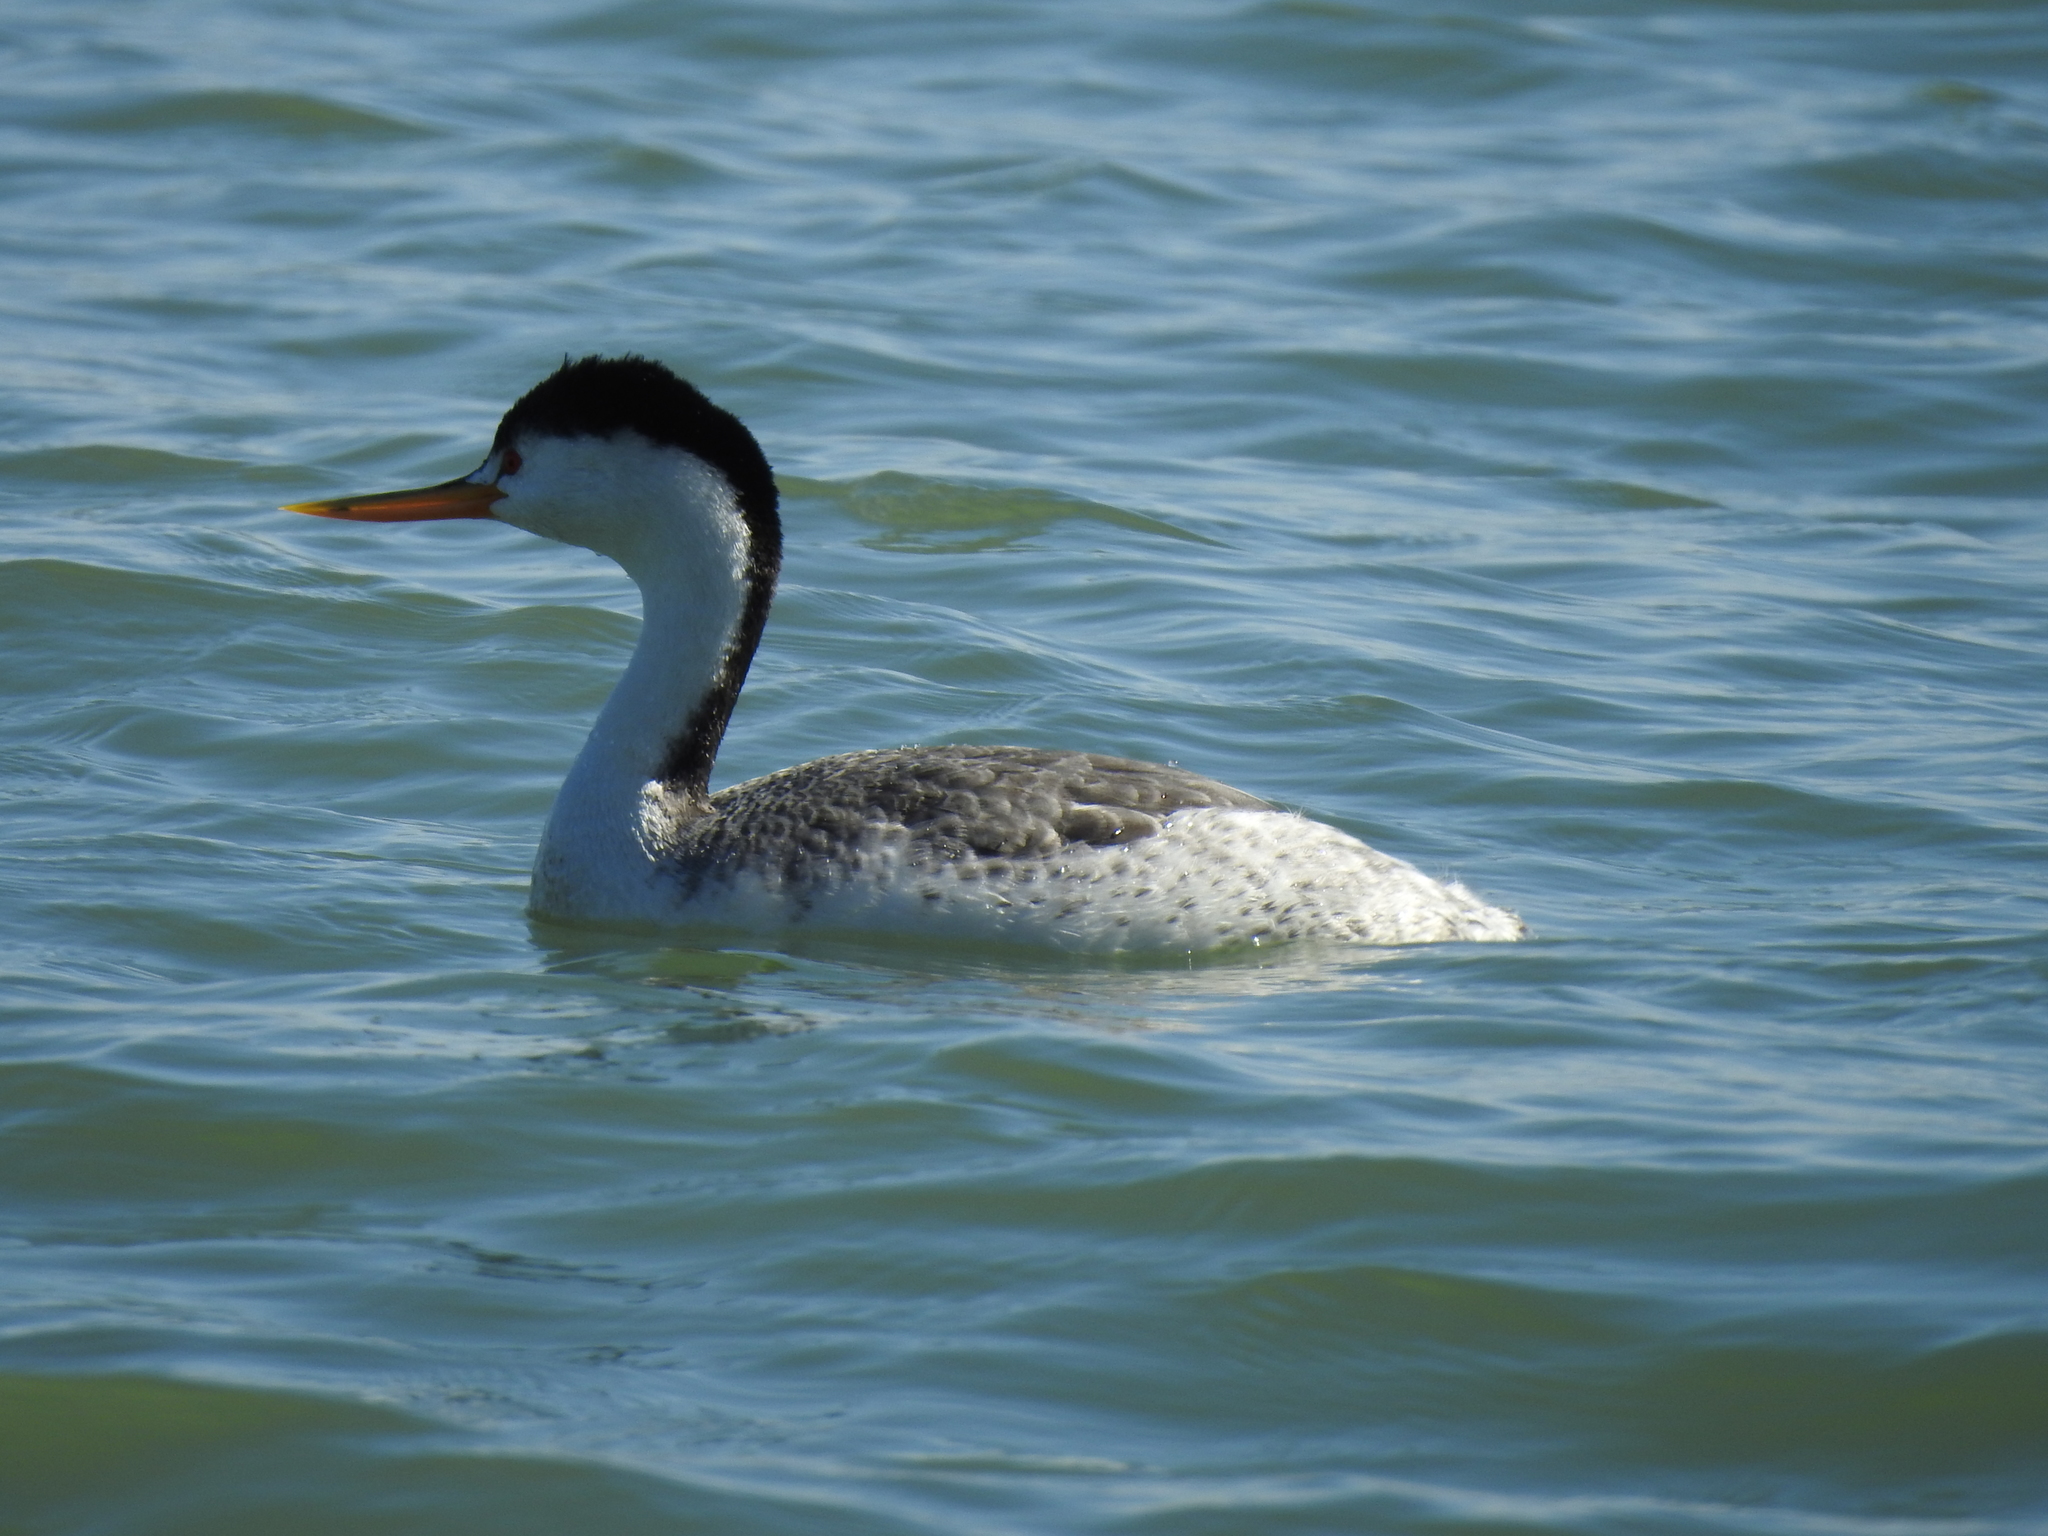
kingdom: Animalia
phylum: Chordata
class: Aves
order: Podicipediformes
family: Podicipedidae
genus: Aechmophorus
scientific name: Aechmophorus clarkii
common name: Clark's grebe
